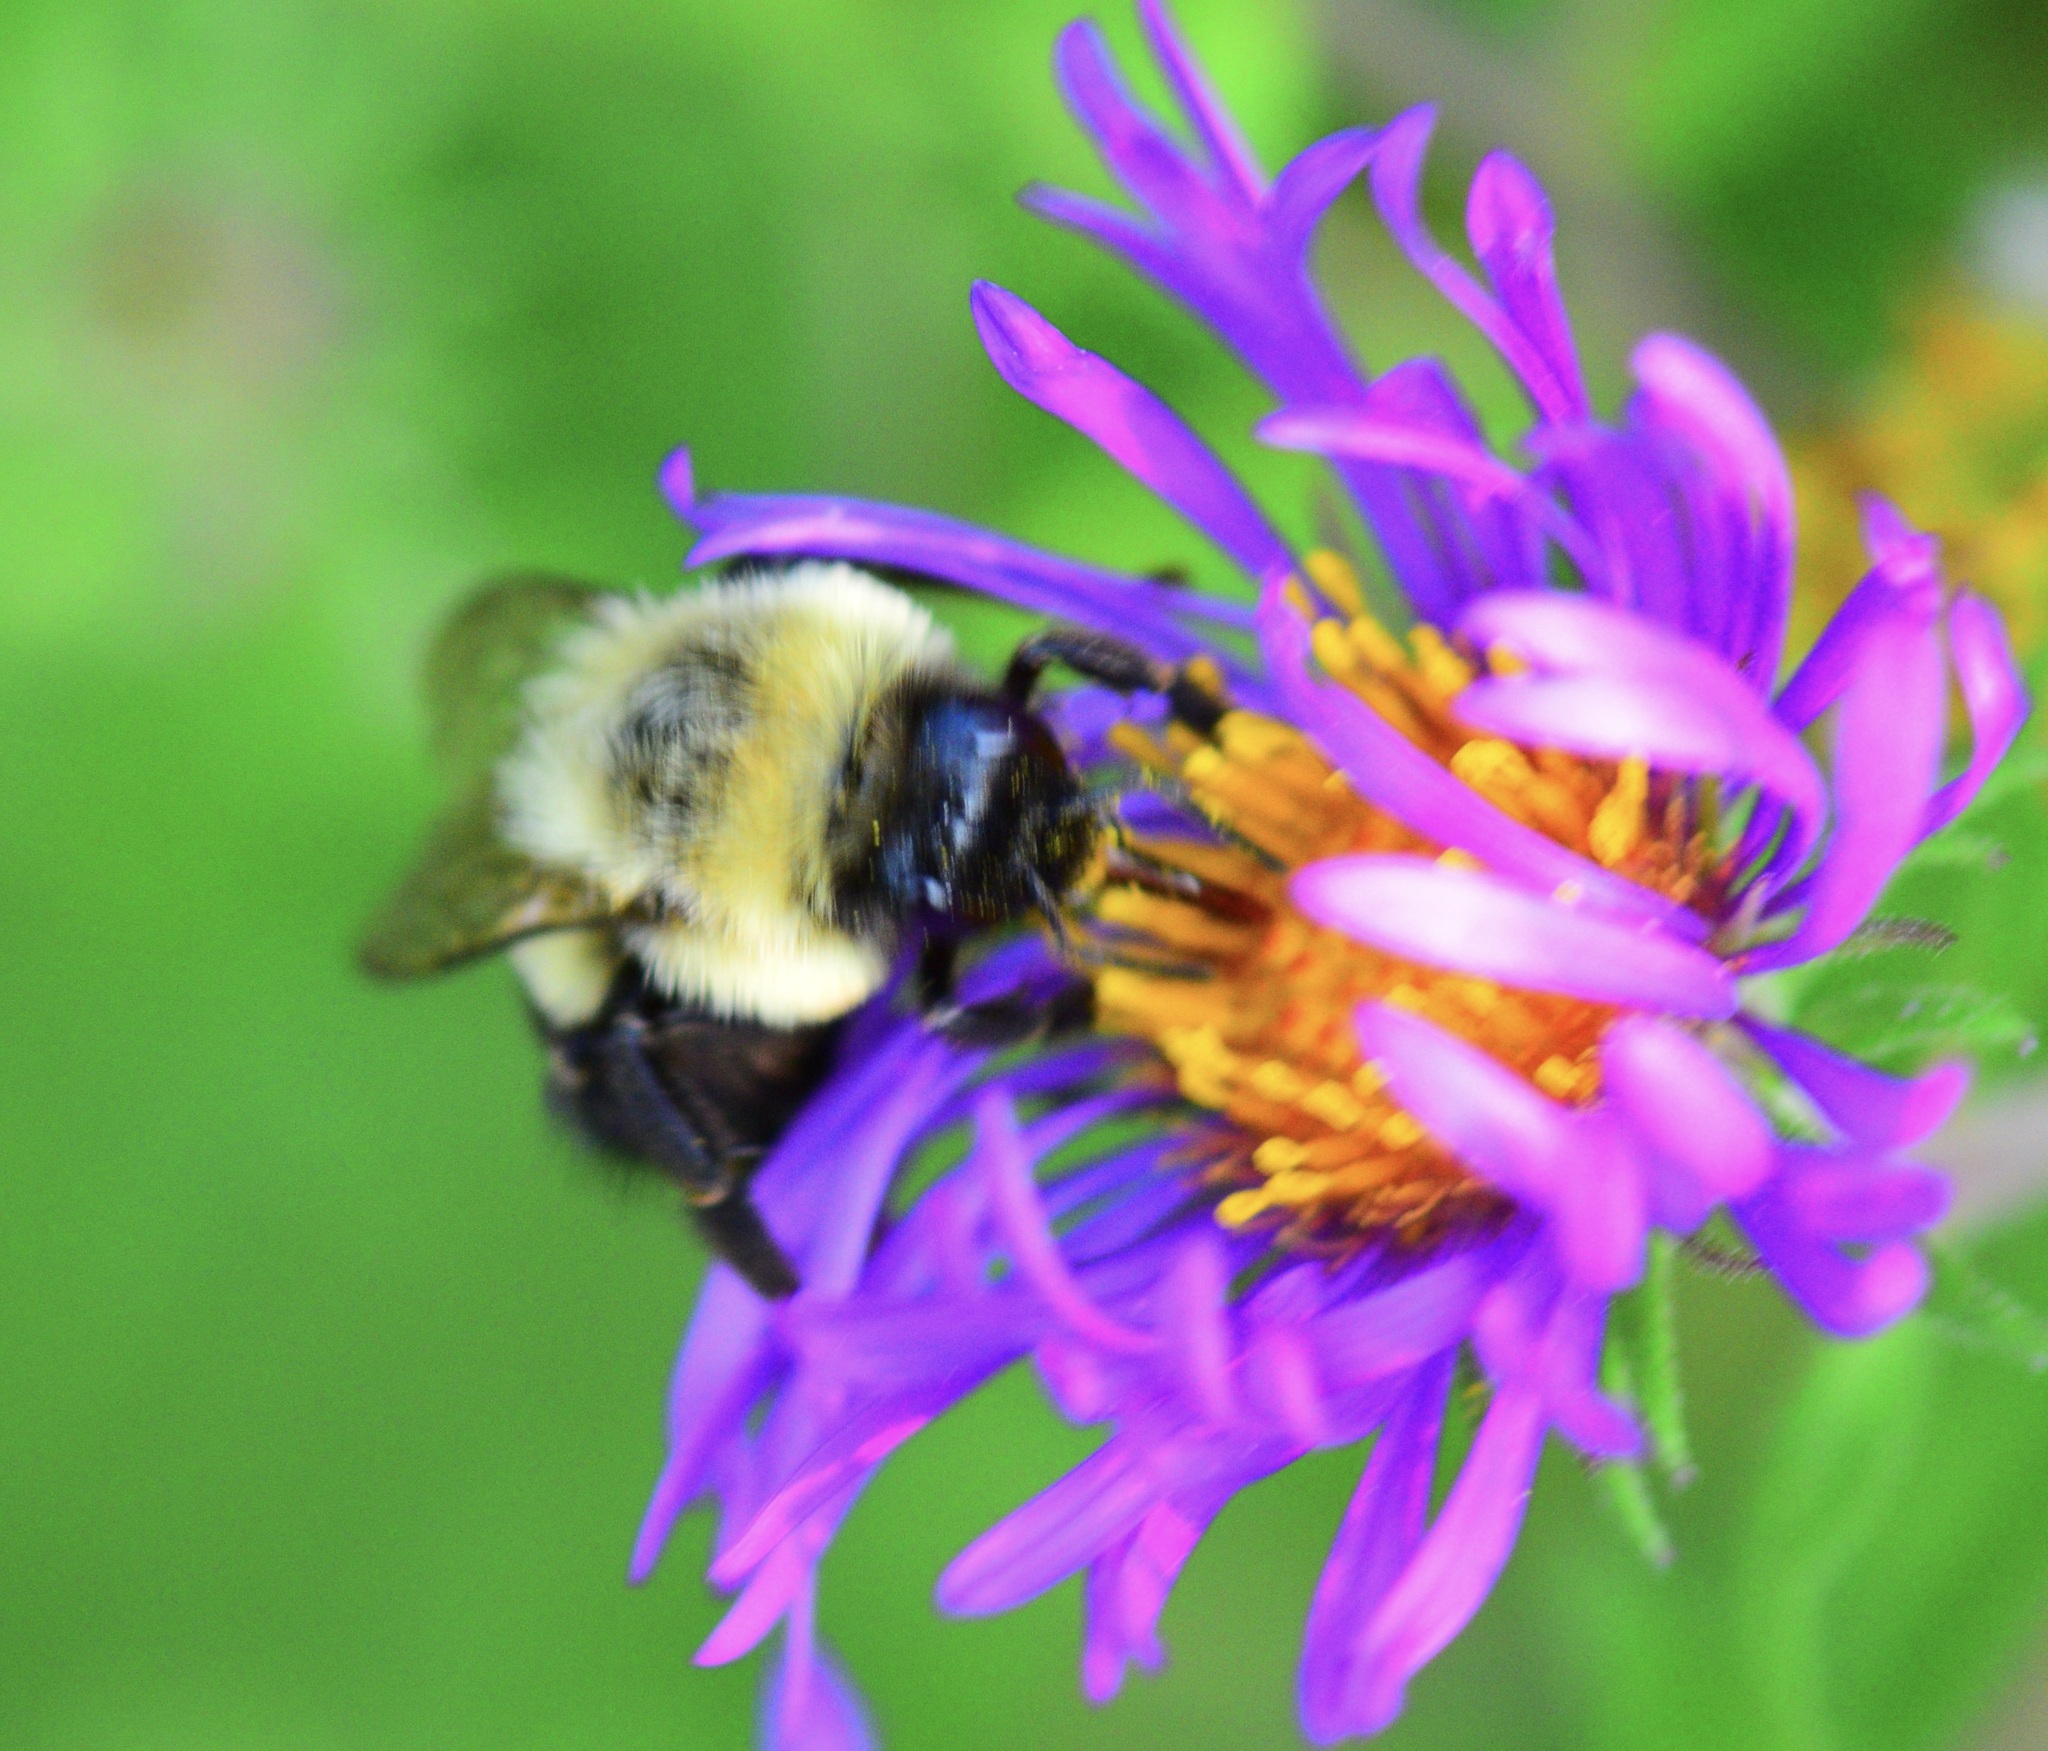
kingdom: Animalia
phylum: Arthropoda
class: Insecta
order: Hymenoptera
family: Apidae
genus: Bombus
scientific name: Bombus impatiens
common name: Common eastern bumble bee
